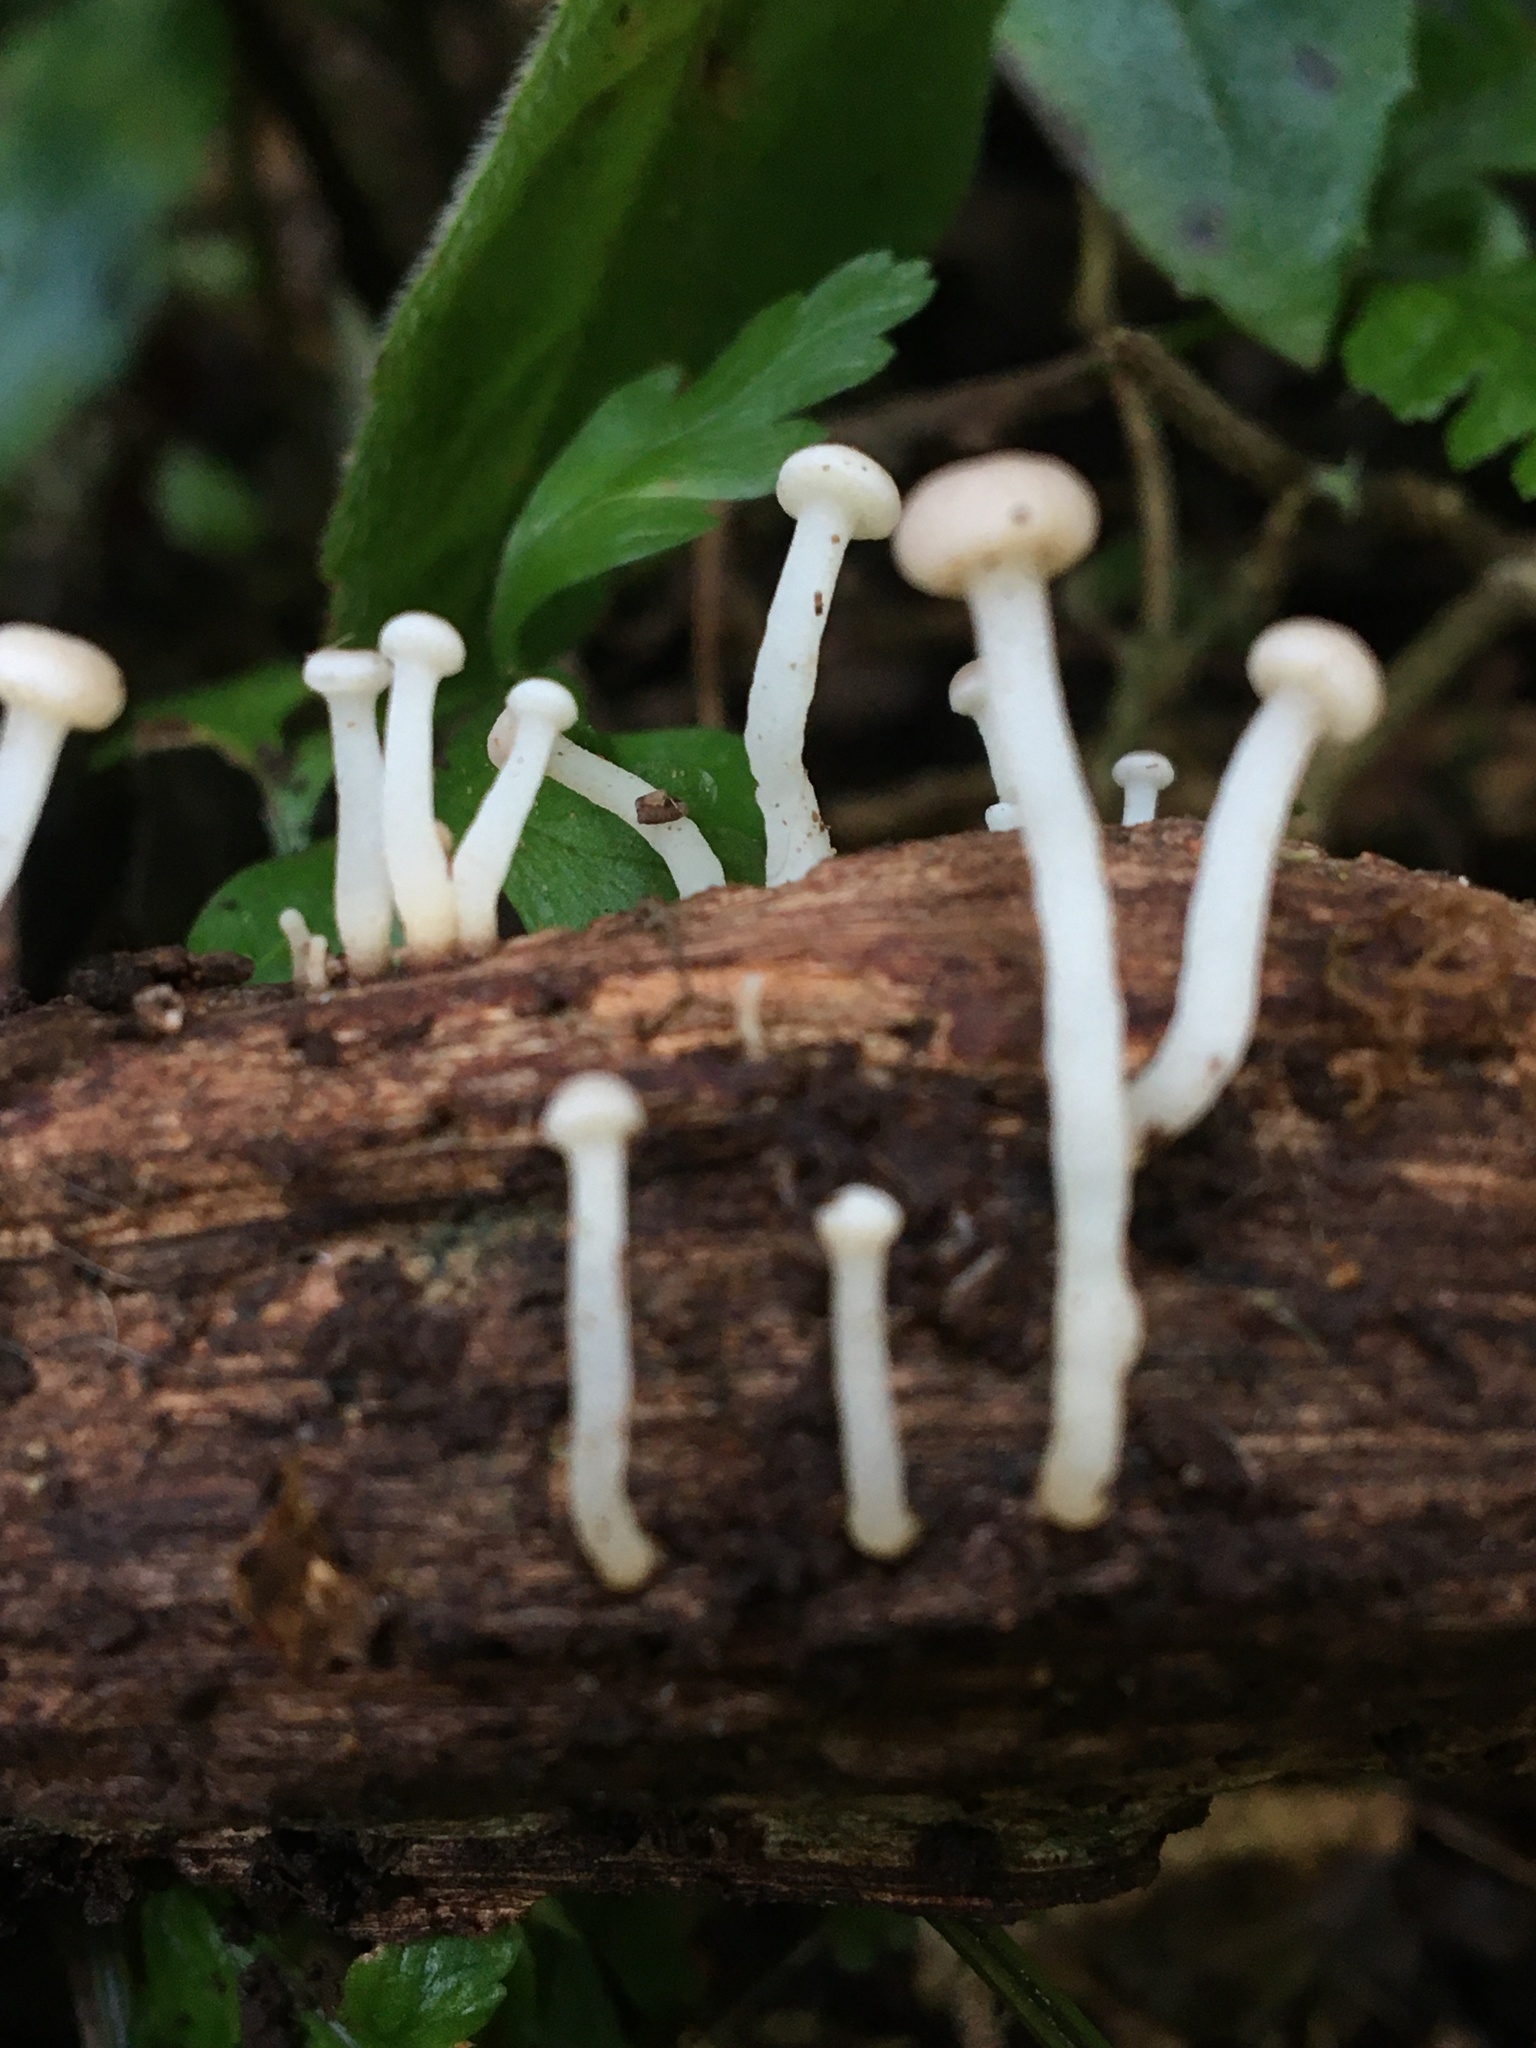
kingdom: Fungi
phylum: Ascomycota
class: Leotiomycetes
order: Helotiales
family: Vibrisseaceae
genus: Vibrissea
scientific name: Vibrissea dura
